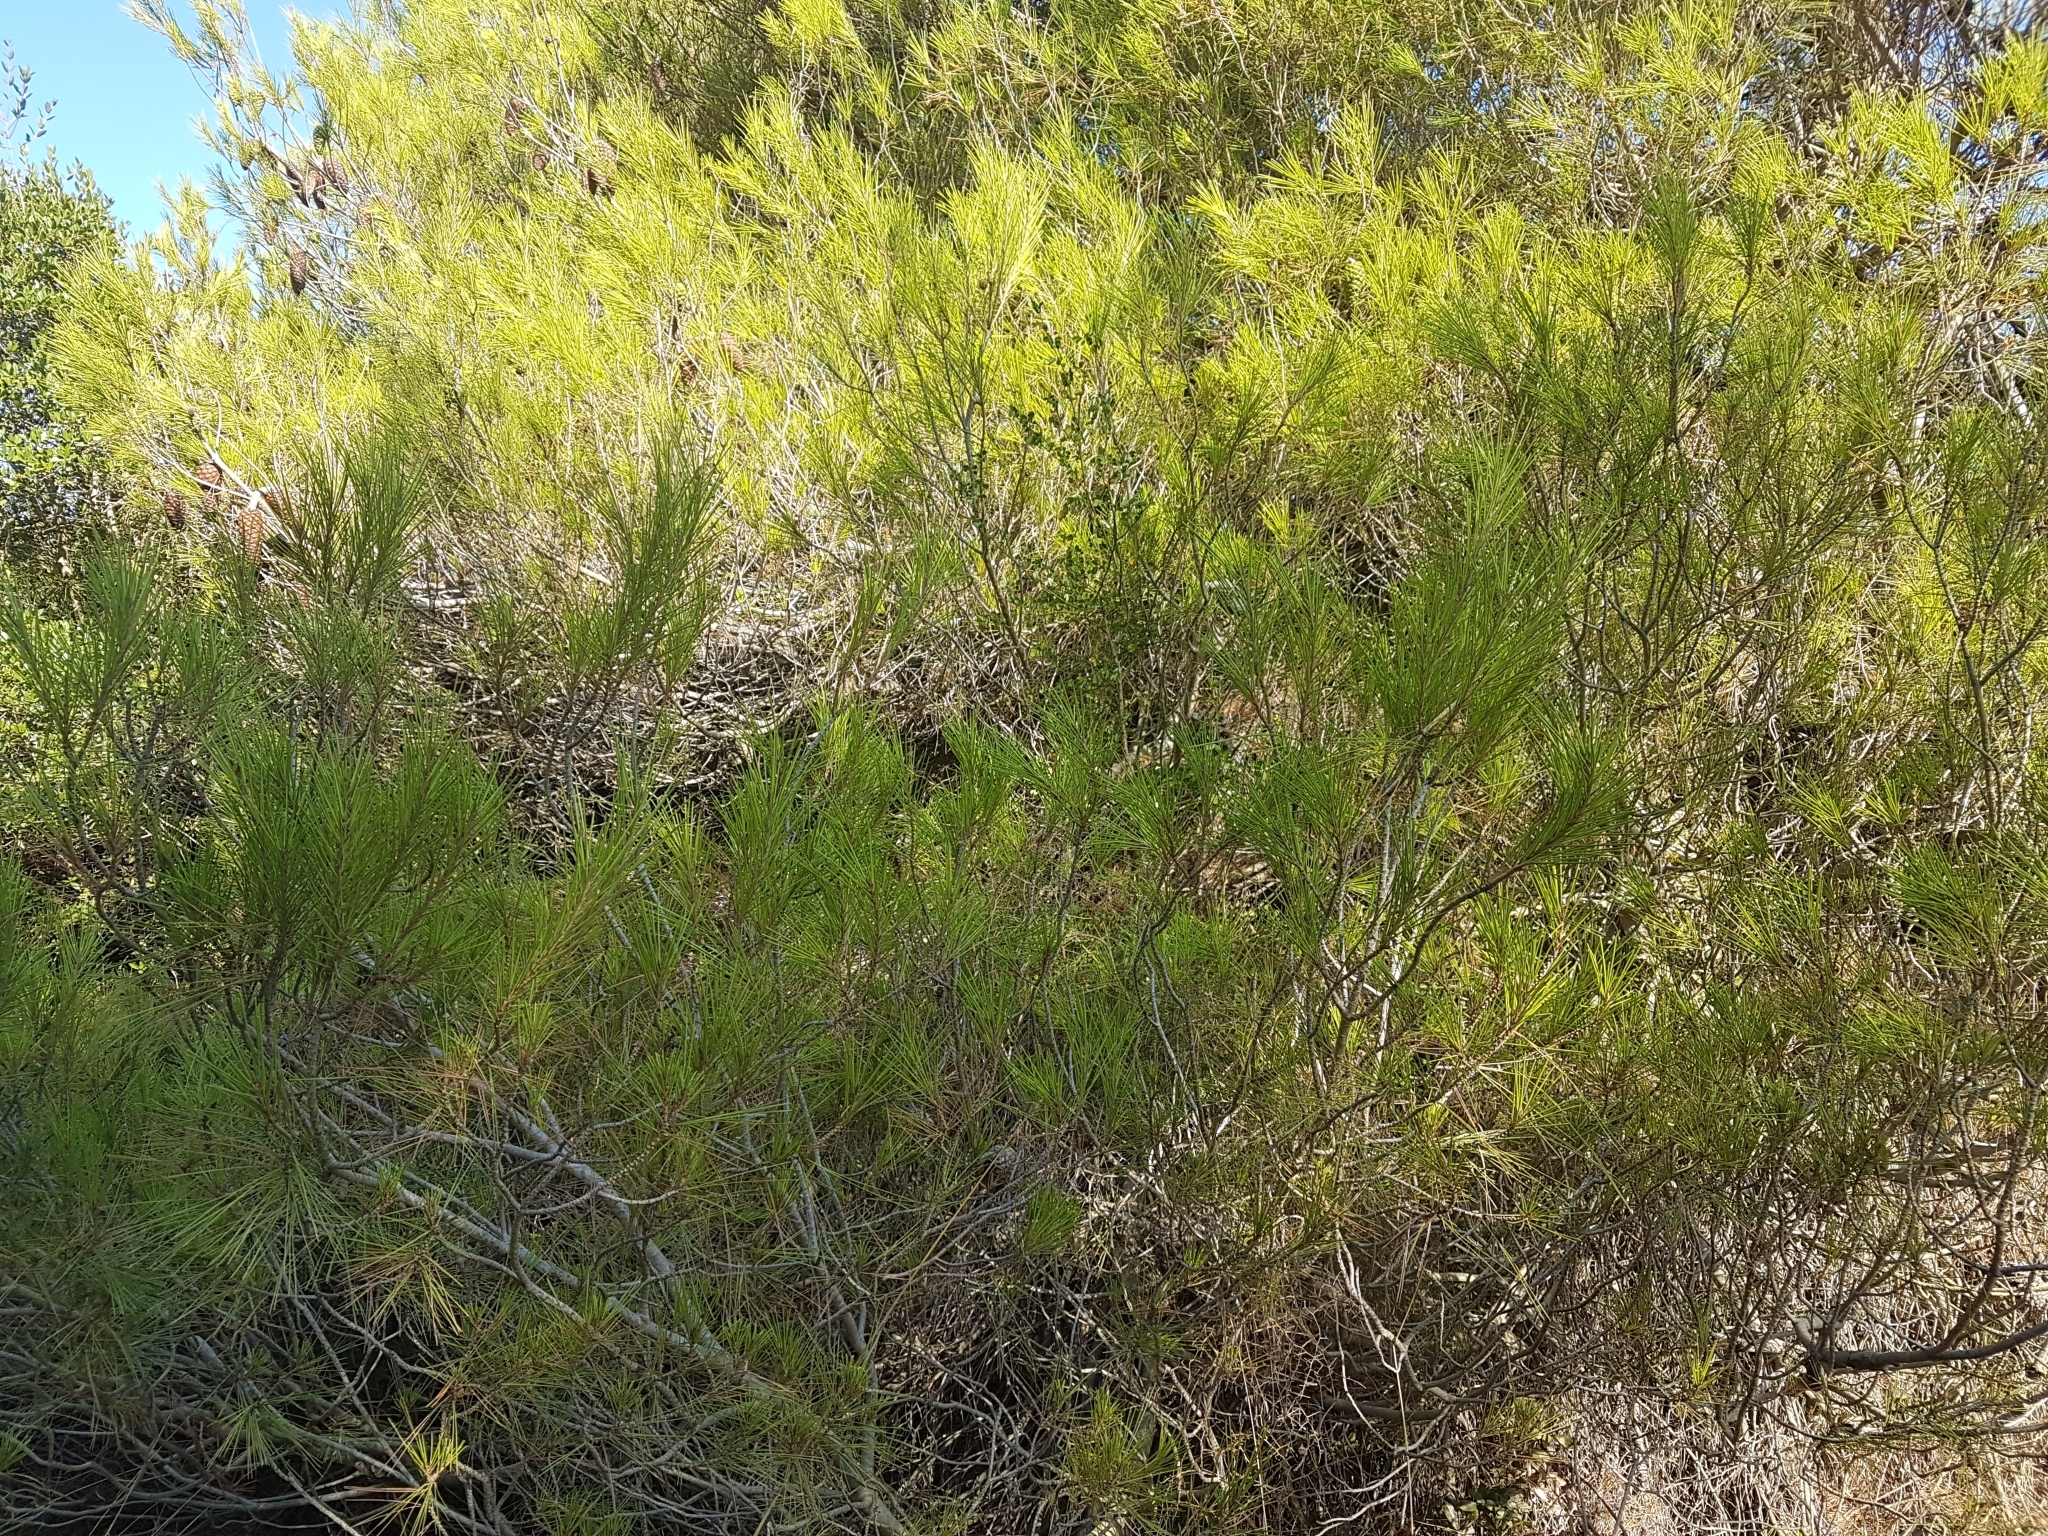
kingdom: Plantae
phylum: Tracheophyta
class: Pinopsida
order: Pinales
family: Pinaceae
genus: Pinus
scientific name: Pinus halepensis
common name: Aleppo pine
